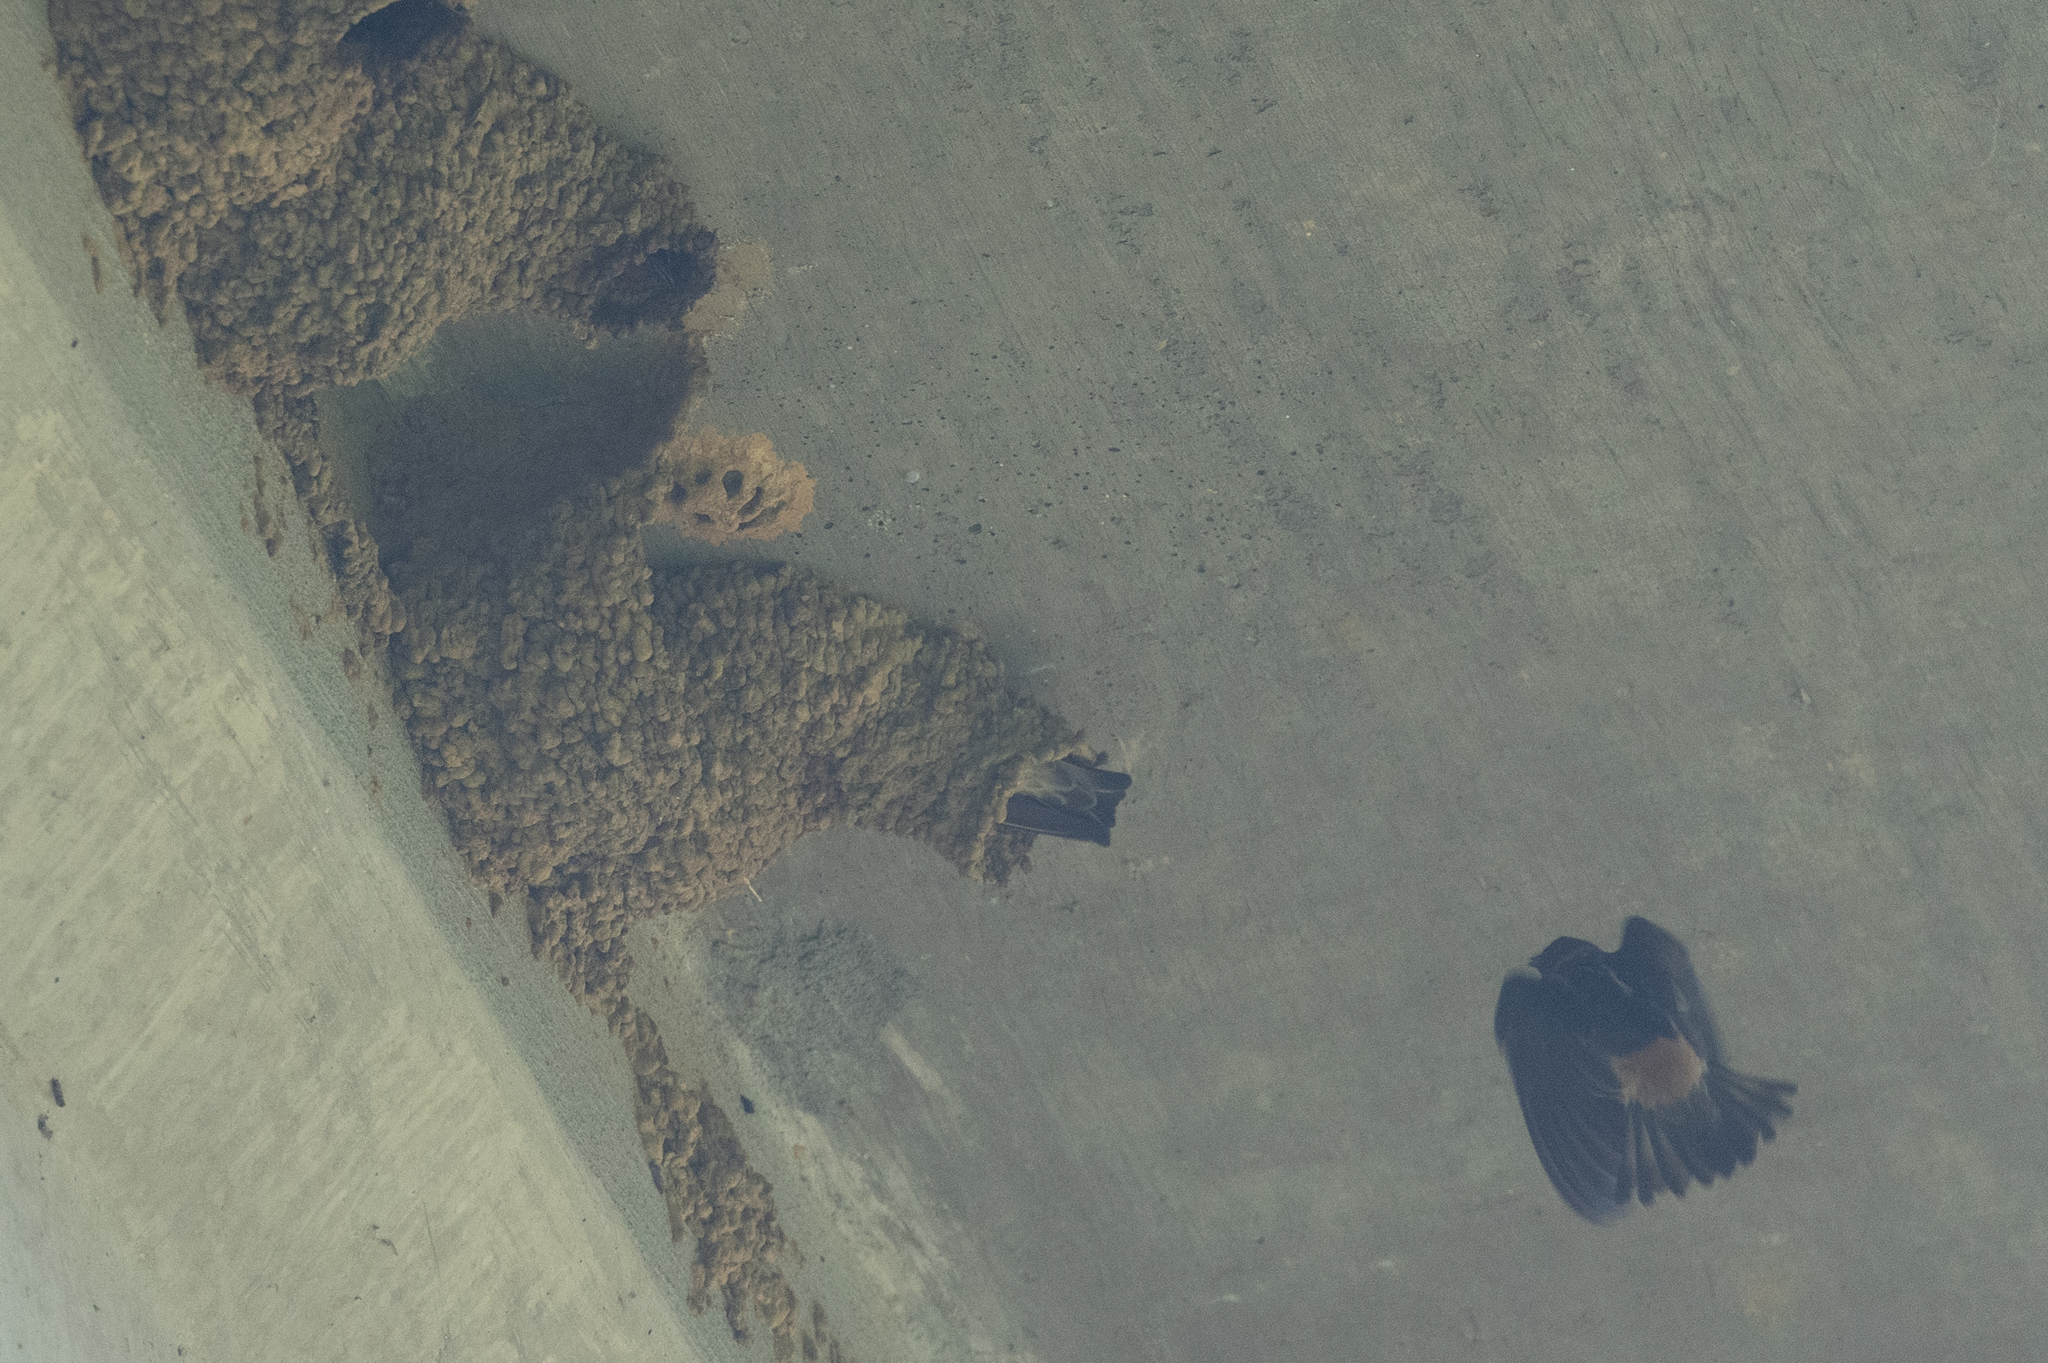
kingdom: Animalia
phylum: Chordata
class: Aves
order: Passeriformes
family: Hirundinidae
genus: Petrochelidon
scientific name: Petrochelidon pyrrhonota
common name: American cliff swallow
